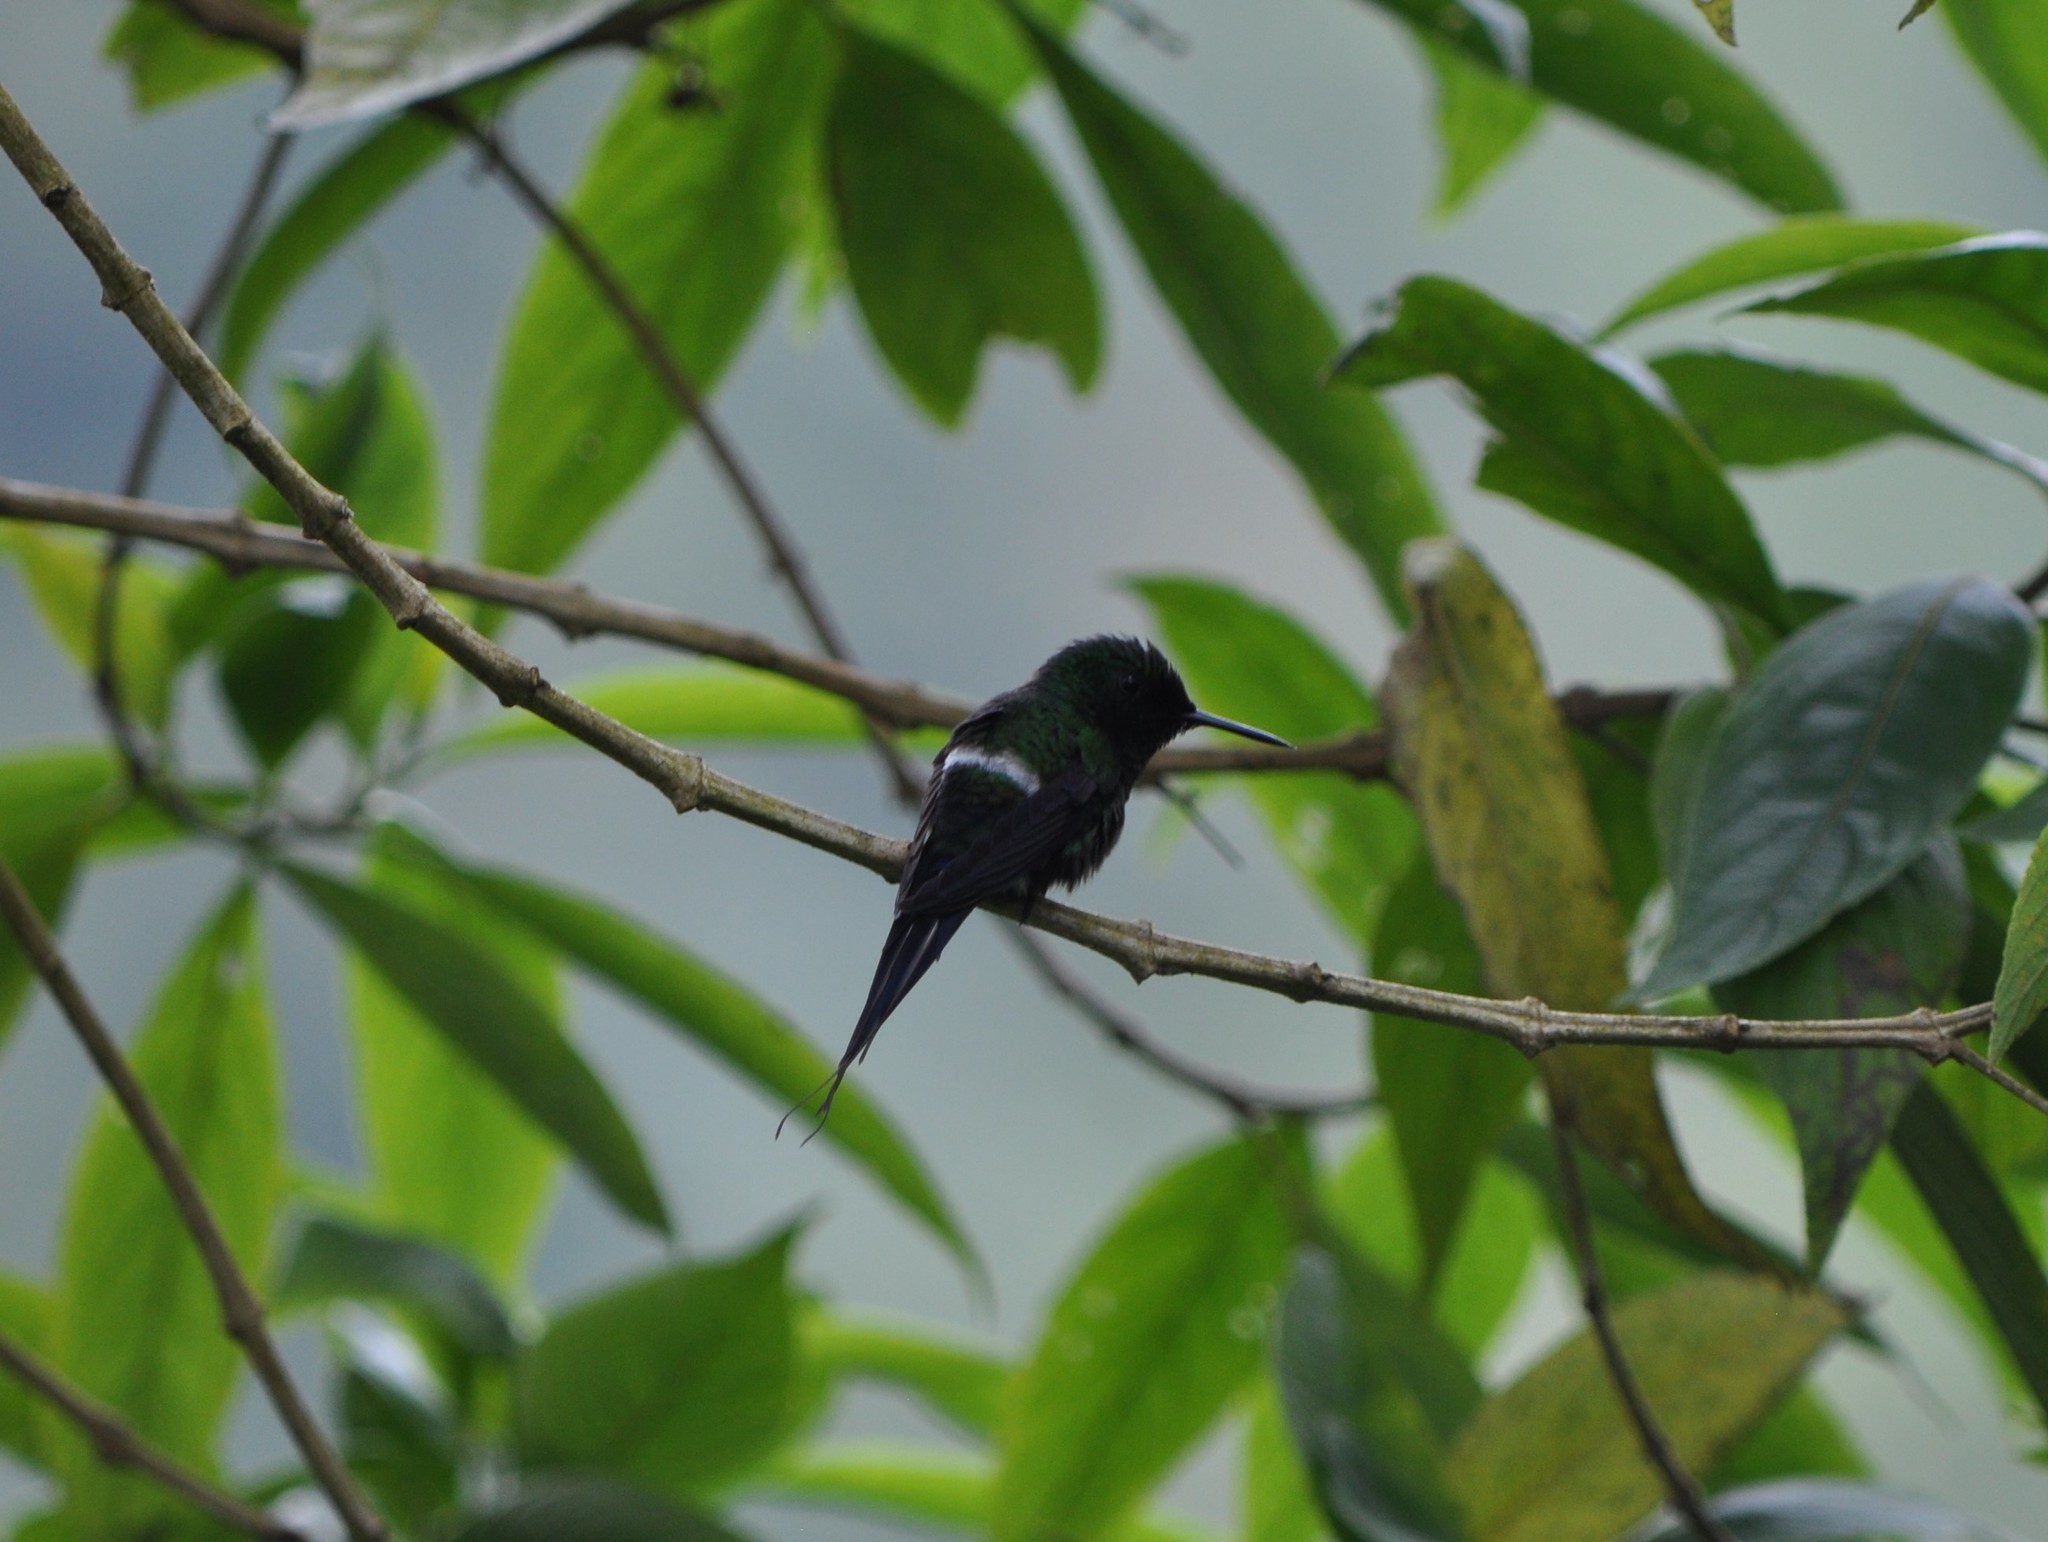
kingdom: Animalia
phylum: Chordata
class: Aves
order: Apodiformes
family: Trochilidae
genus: Discosura
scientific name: Discosura conversii
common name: Green thorntail
